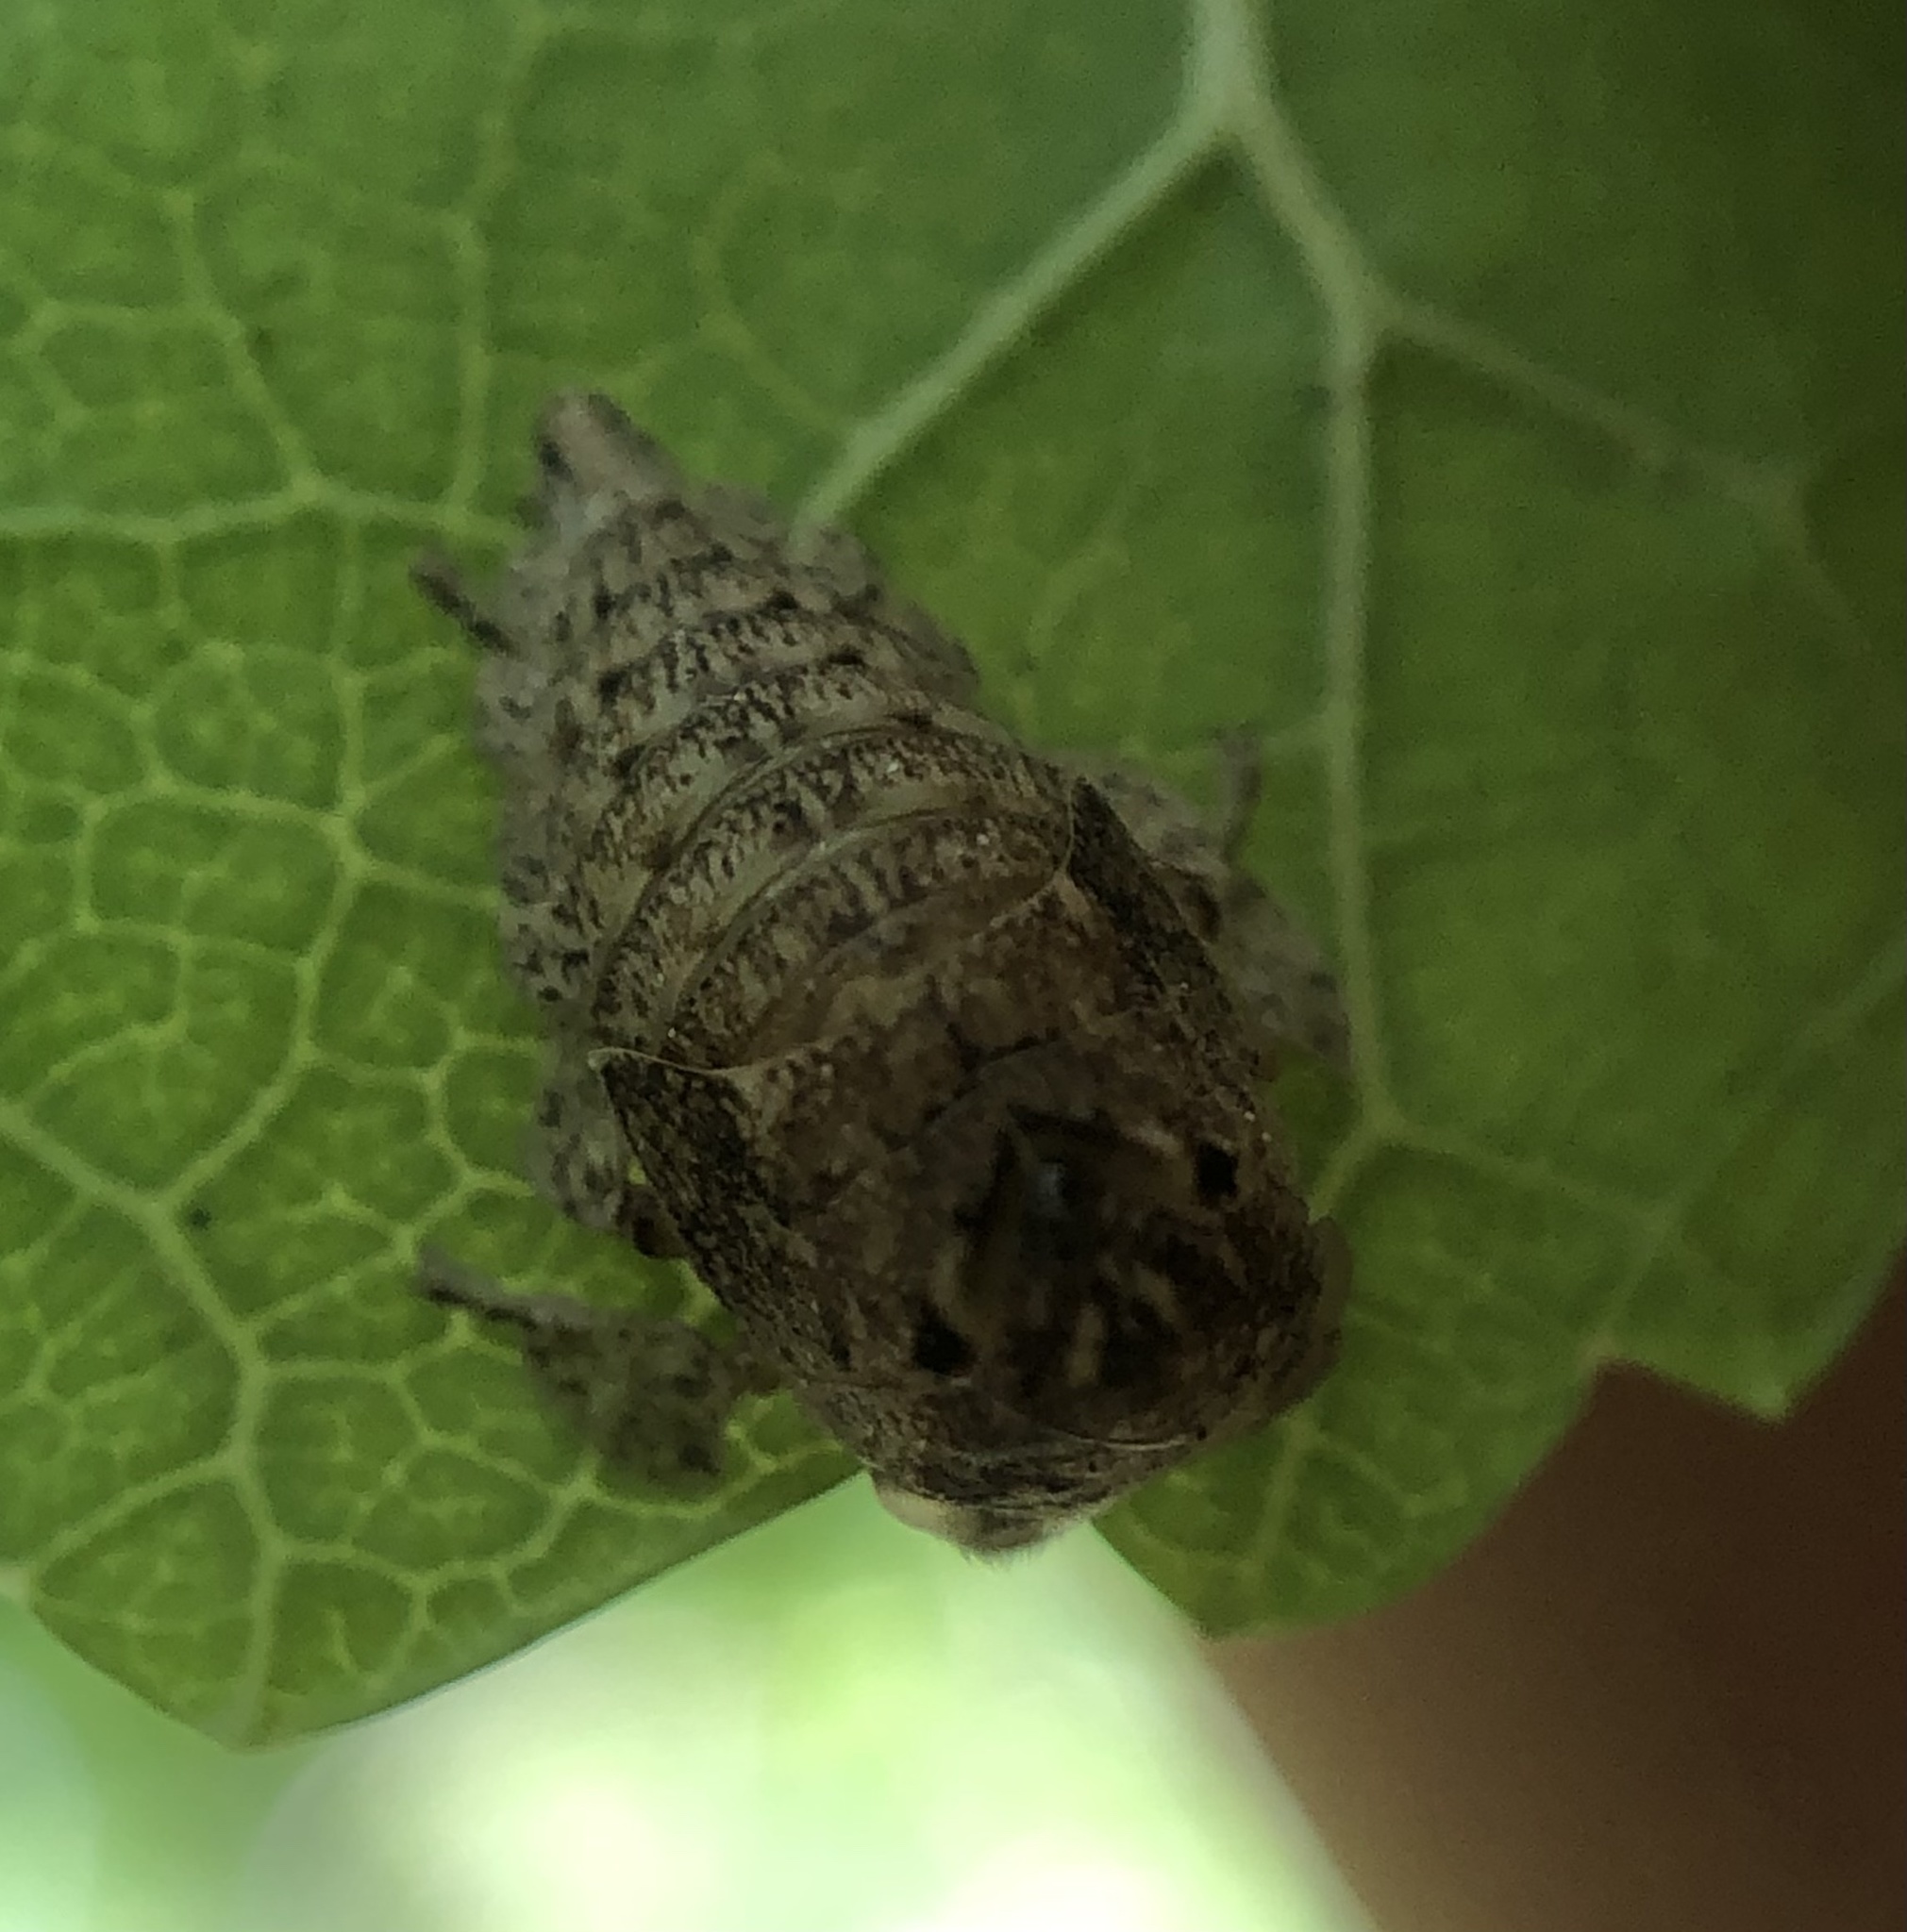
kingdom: Animalia
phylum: Arthropoda
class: Insecta
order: Hemiptera
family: Membracidae
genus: Hebetica
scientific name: Hebetica
